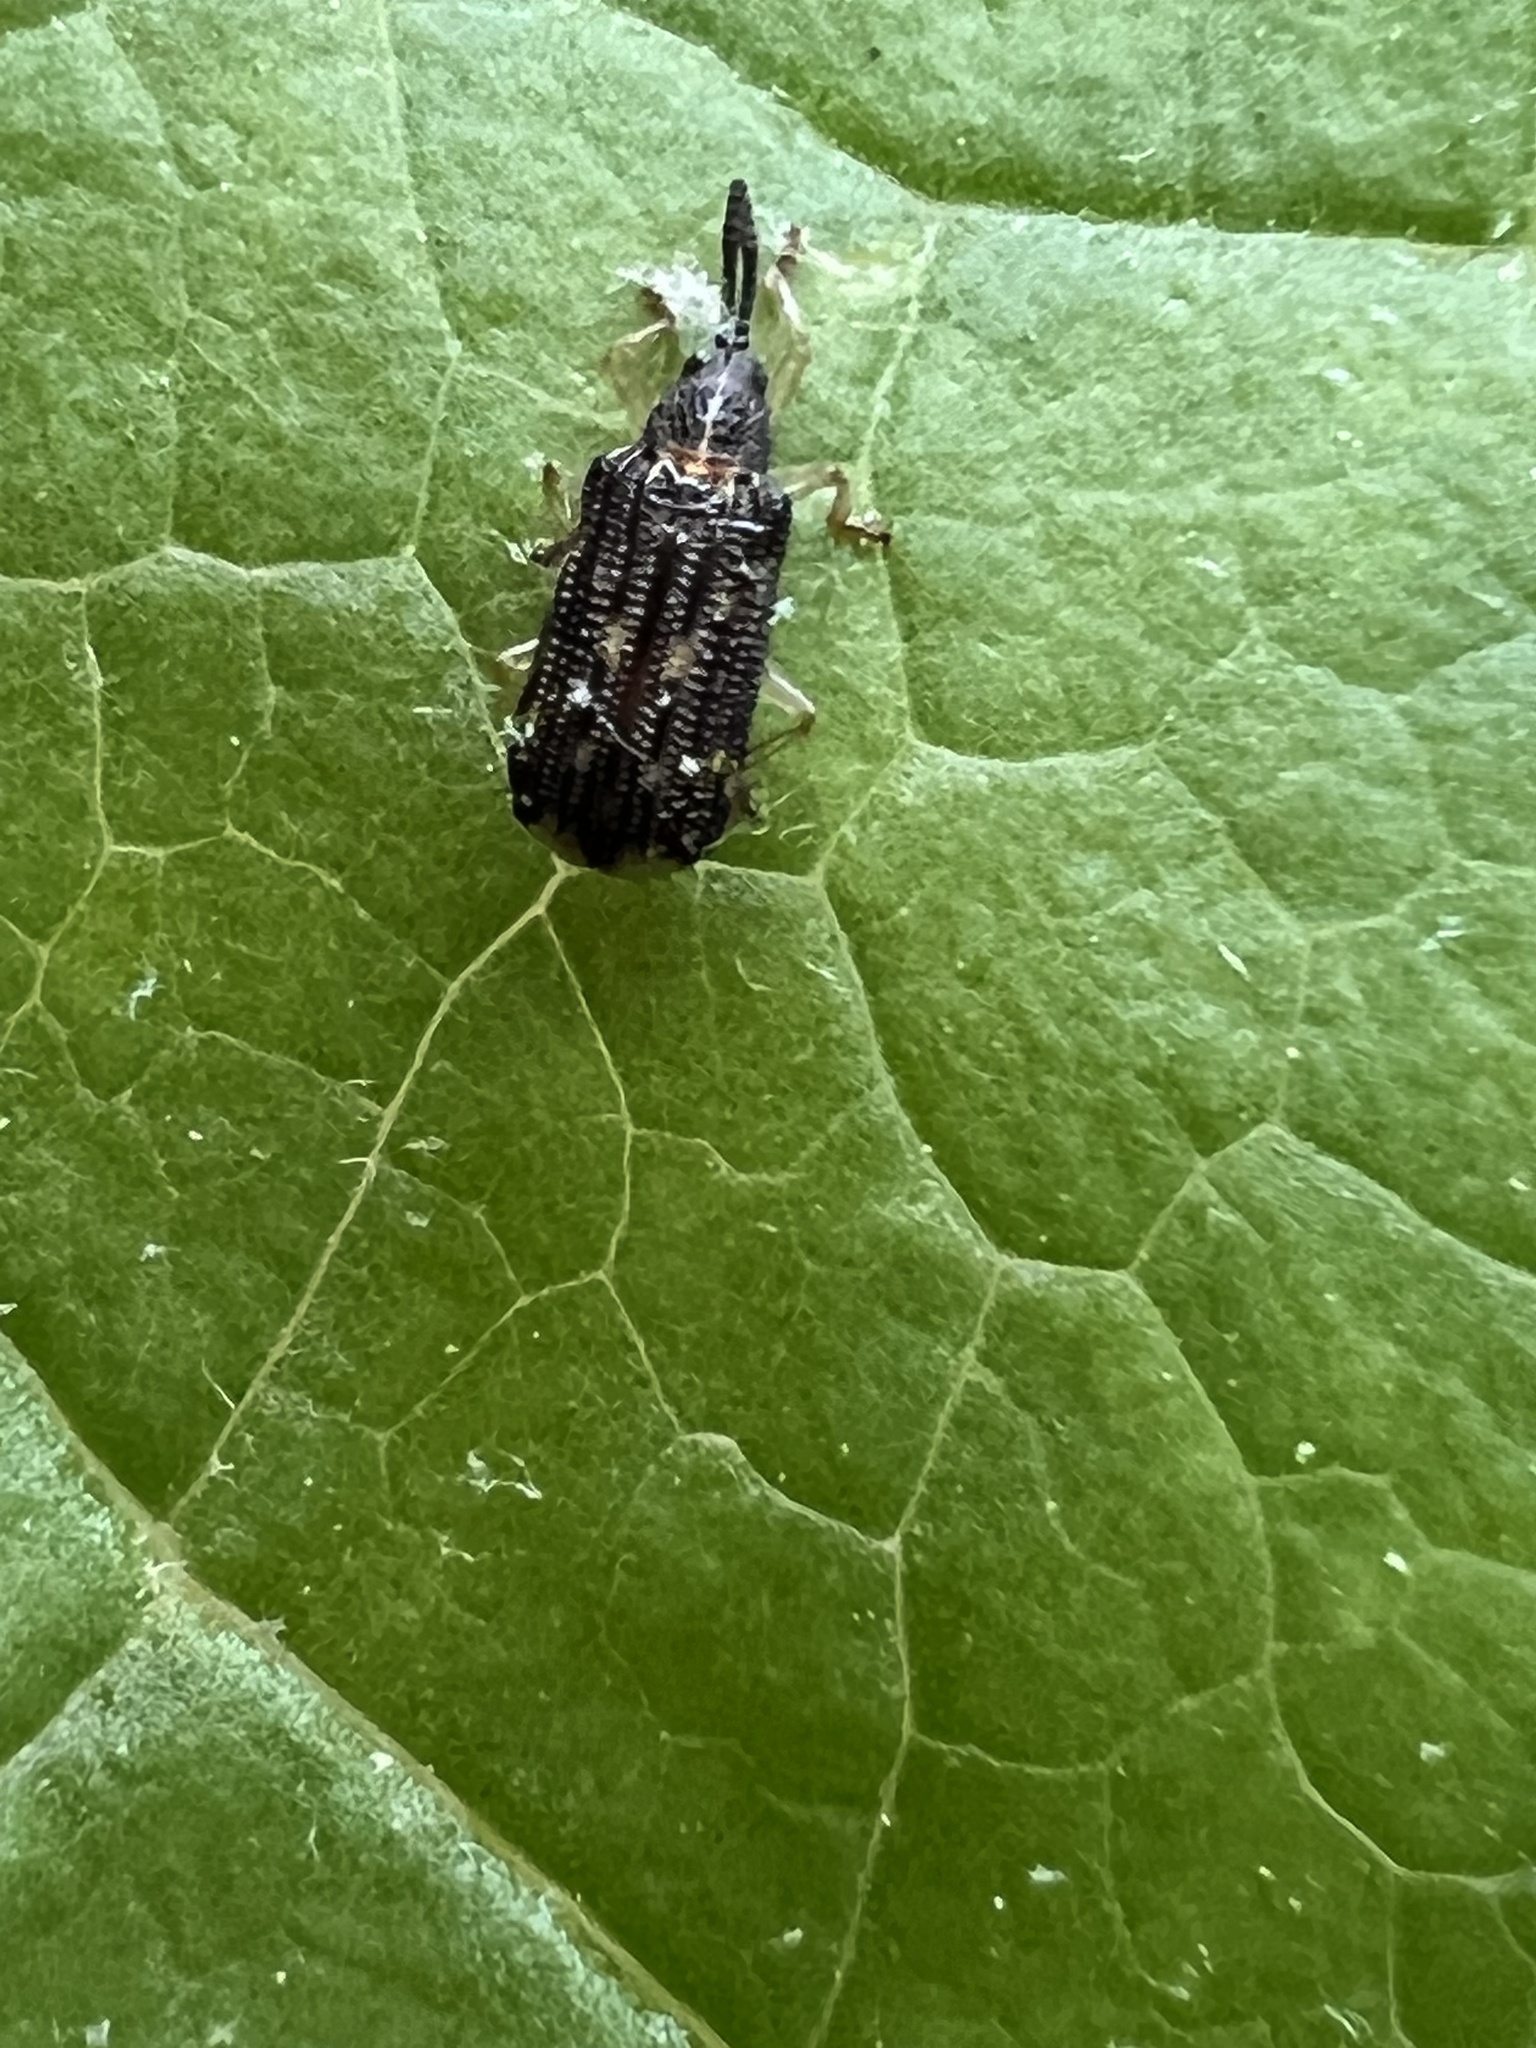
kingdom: Animalia
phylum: Arthropoda
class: Insecta
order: Coleoptera
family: Chrysomelidae
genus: Sumitrosis
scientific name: Sumitrosis inaequalis
